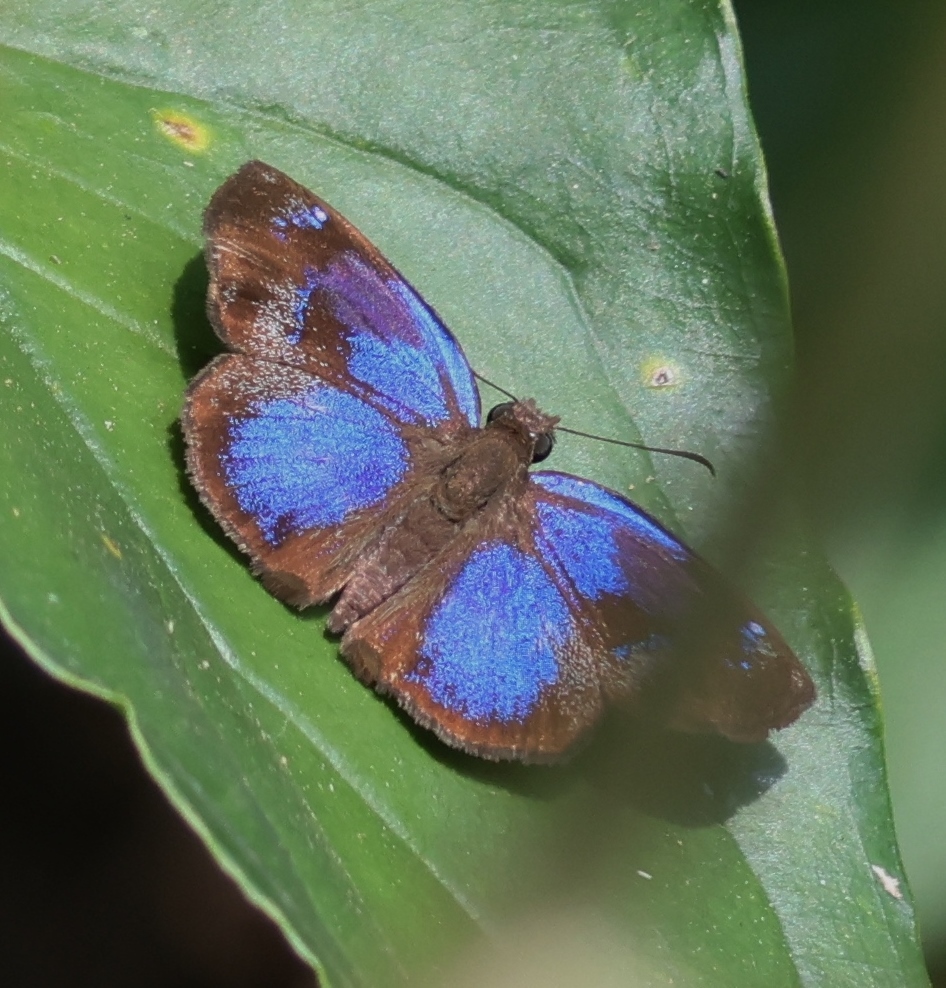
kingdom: Animalia
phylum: Arthropoda
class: Insecta
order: Lepidoptera
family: Hesperiidae
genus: Paches
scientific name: Paches loxus
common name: Glorious blue-skipper
